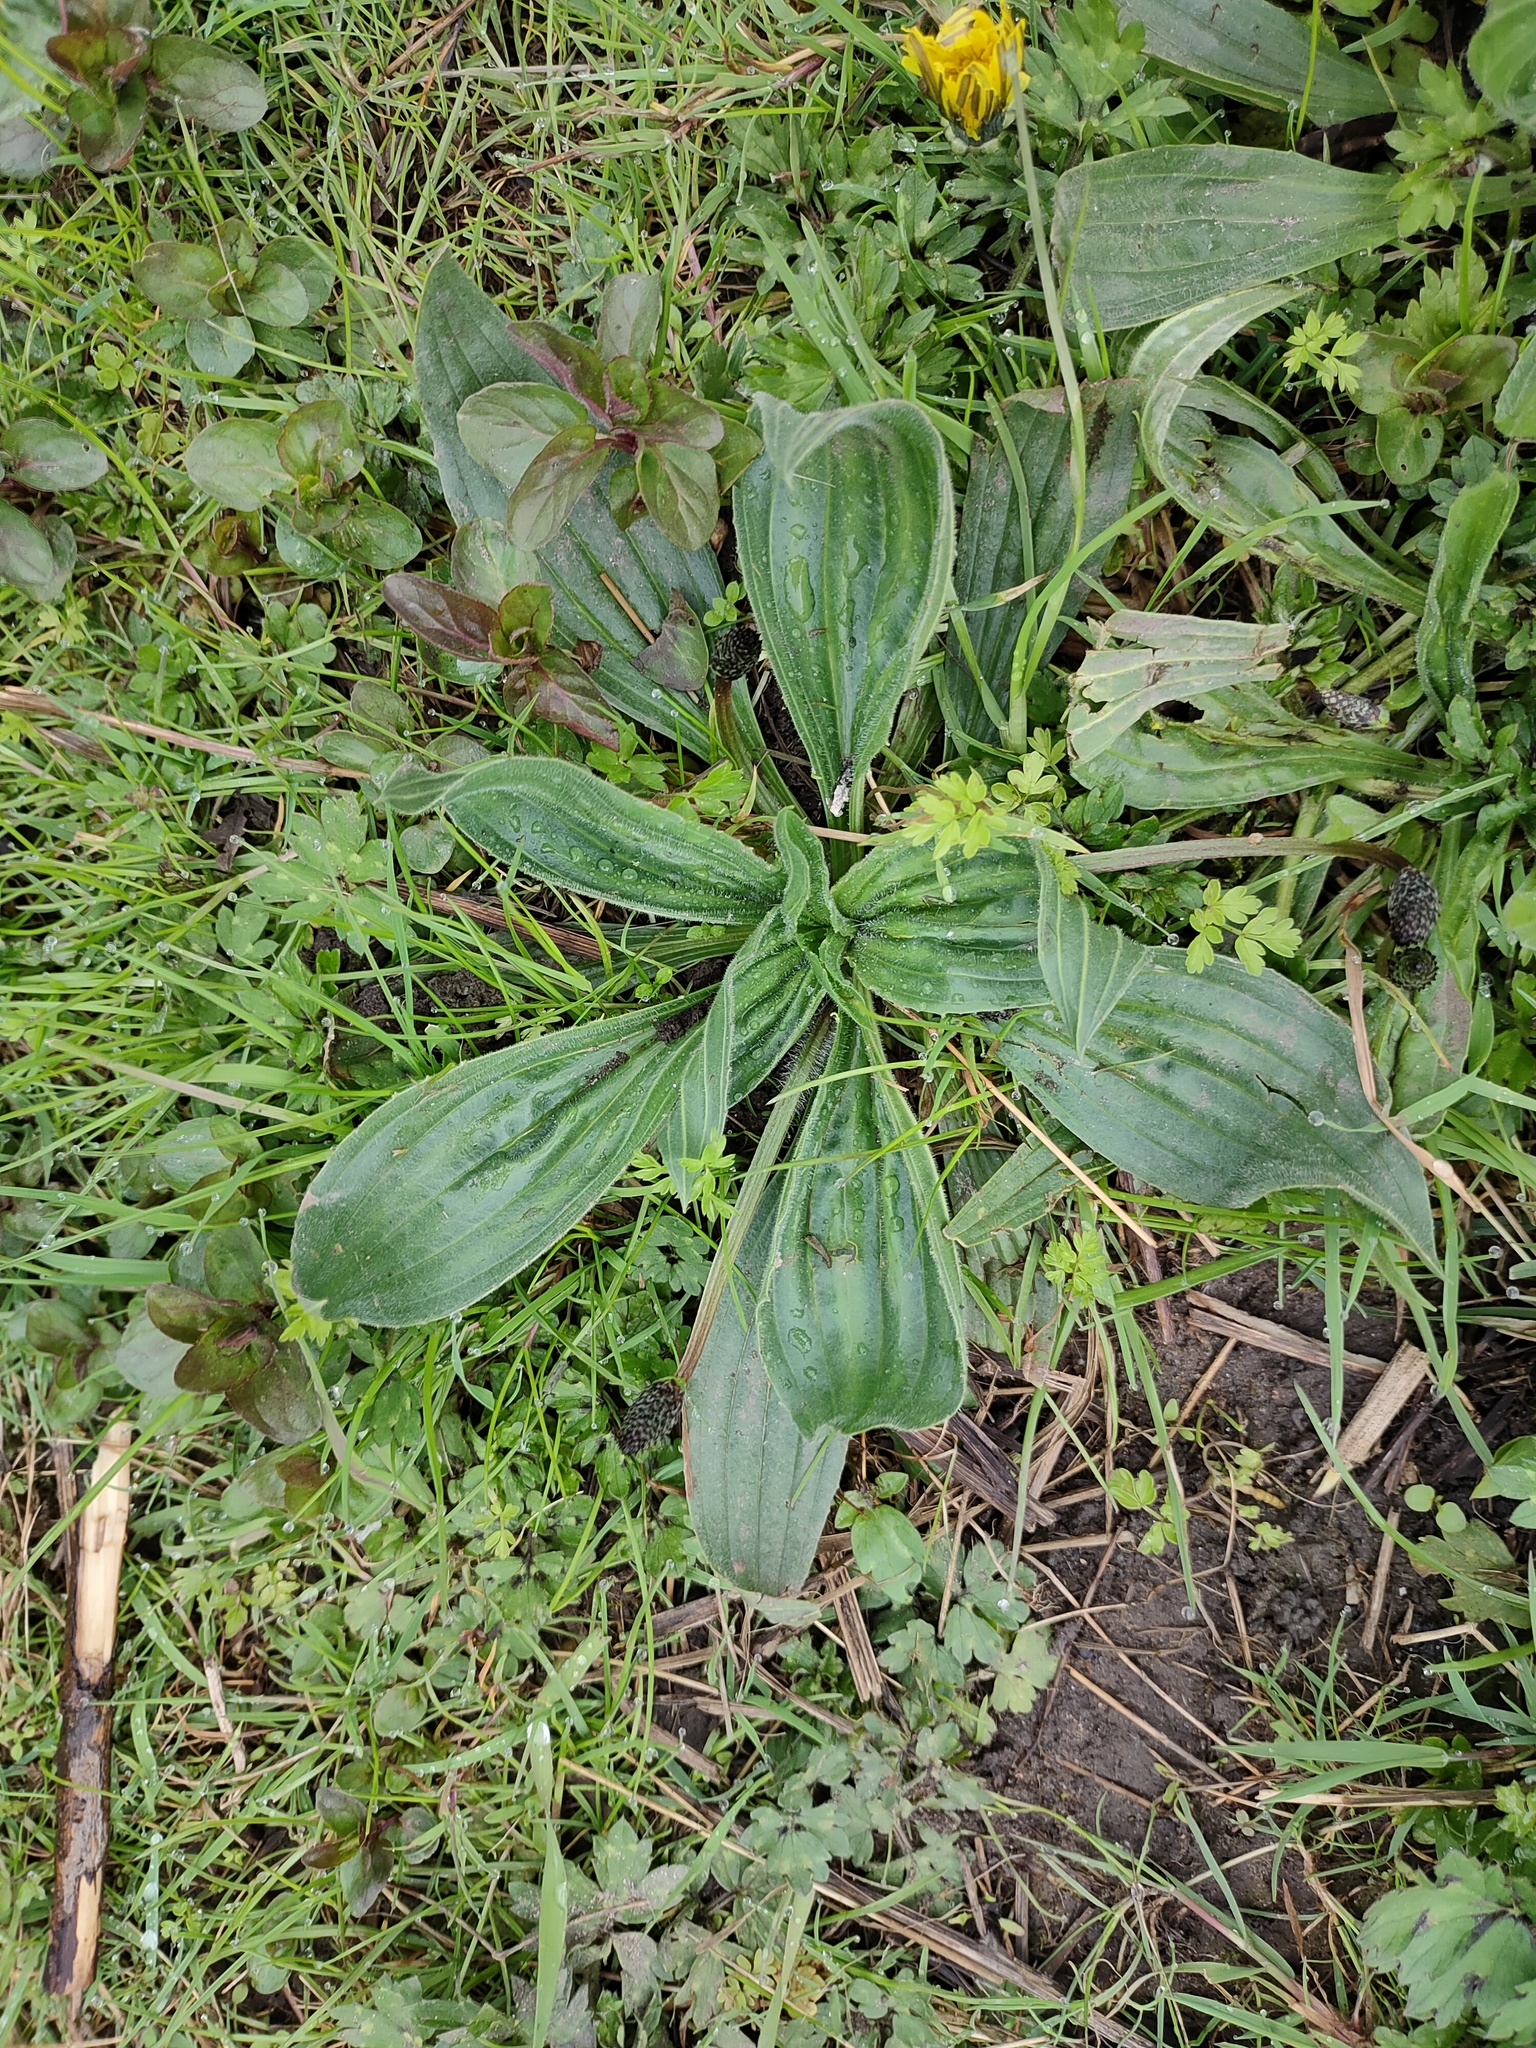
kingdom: Plantae
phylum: Tracheophyta
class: Magnoliopsida
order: Lamiales
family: Plantaginaceae
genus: Plantago
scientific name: Plantago lanceolata
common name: Ribwort plantain
